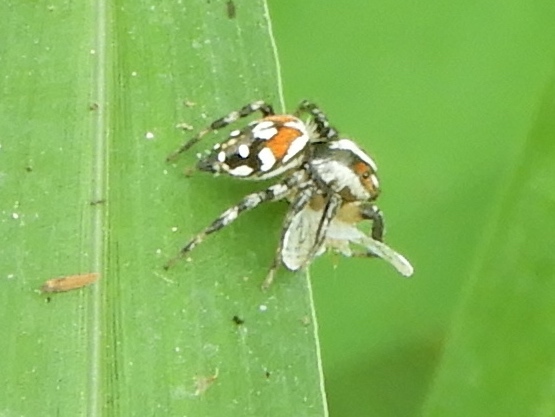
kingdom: Animalia
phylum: Arthropoda
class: Arachnida
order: Araneae
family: Salticidae
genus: Nycerella
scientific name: Nycerella delecta
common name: Jumping spiders
